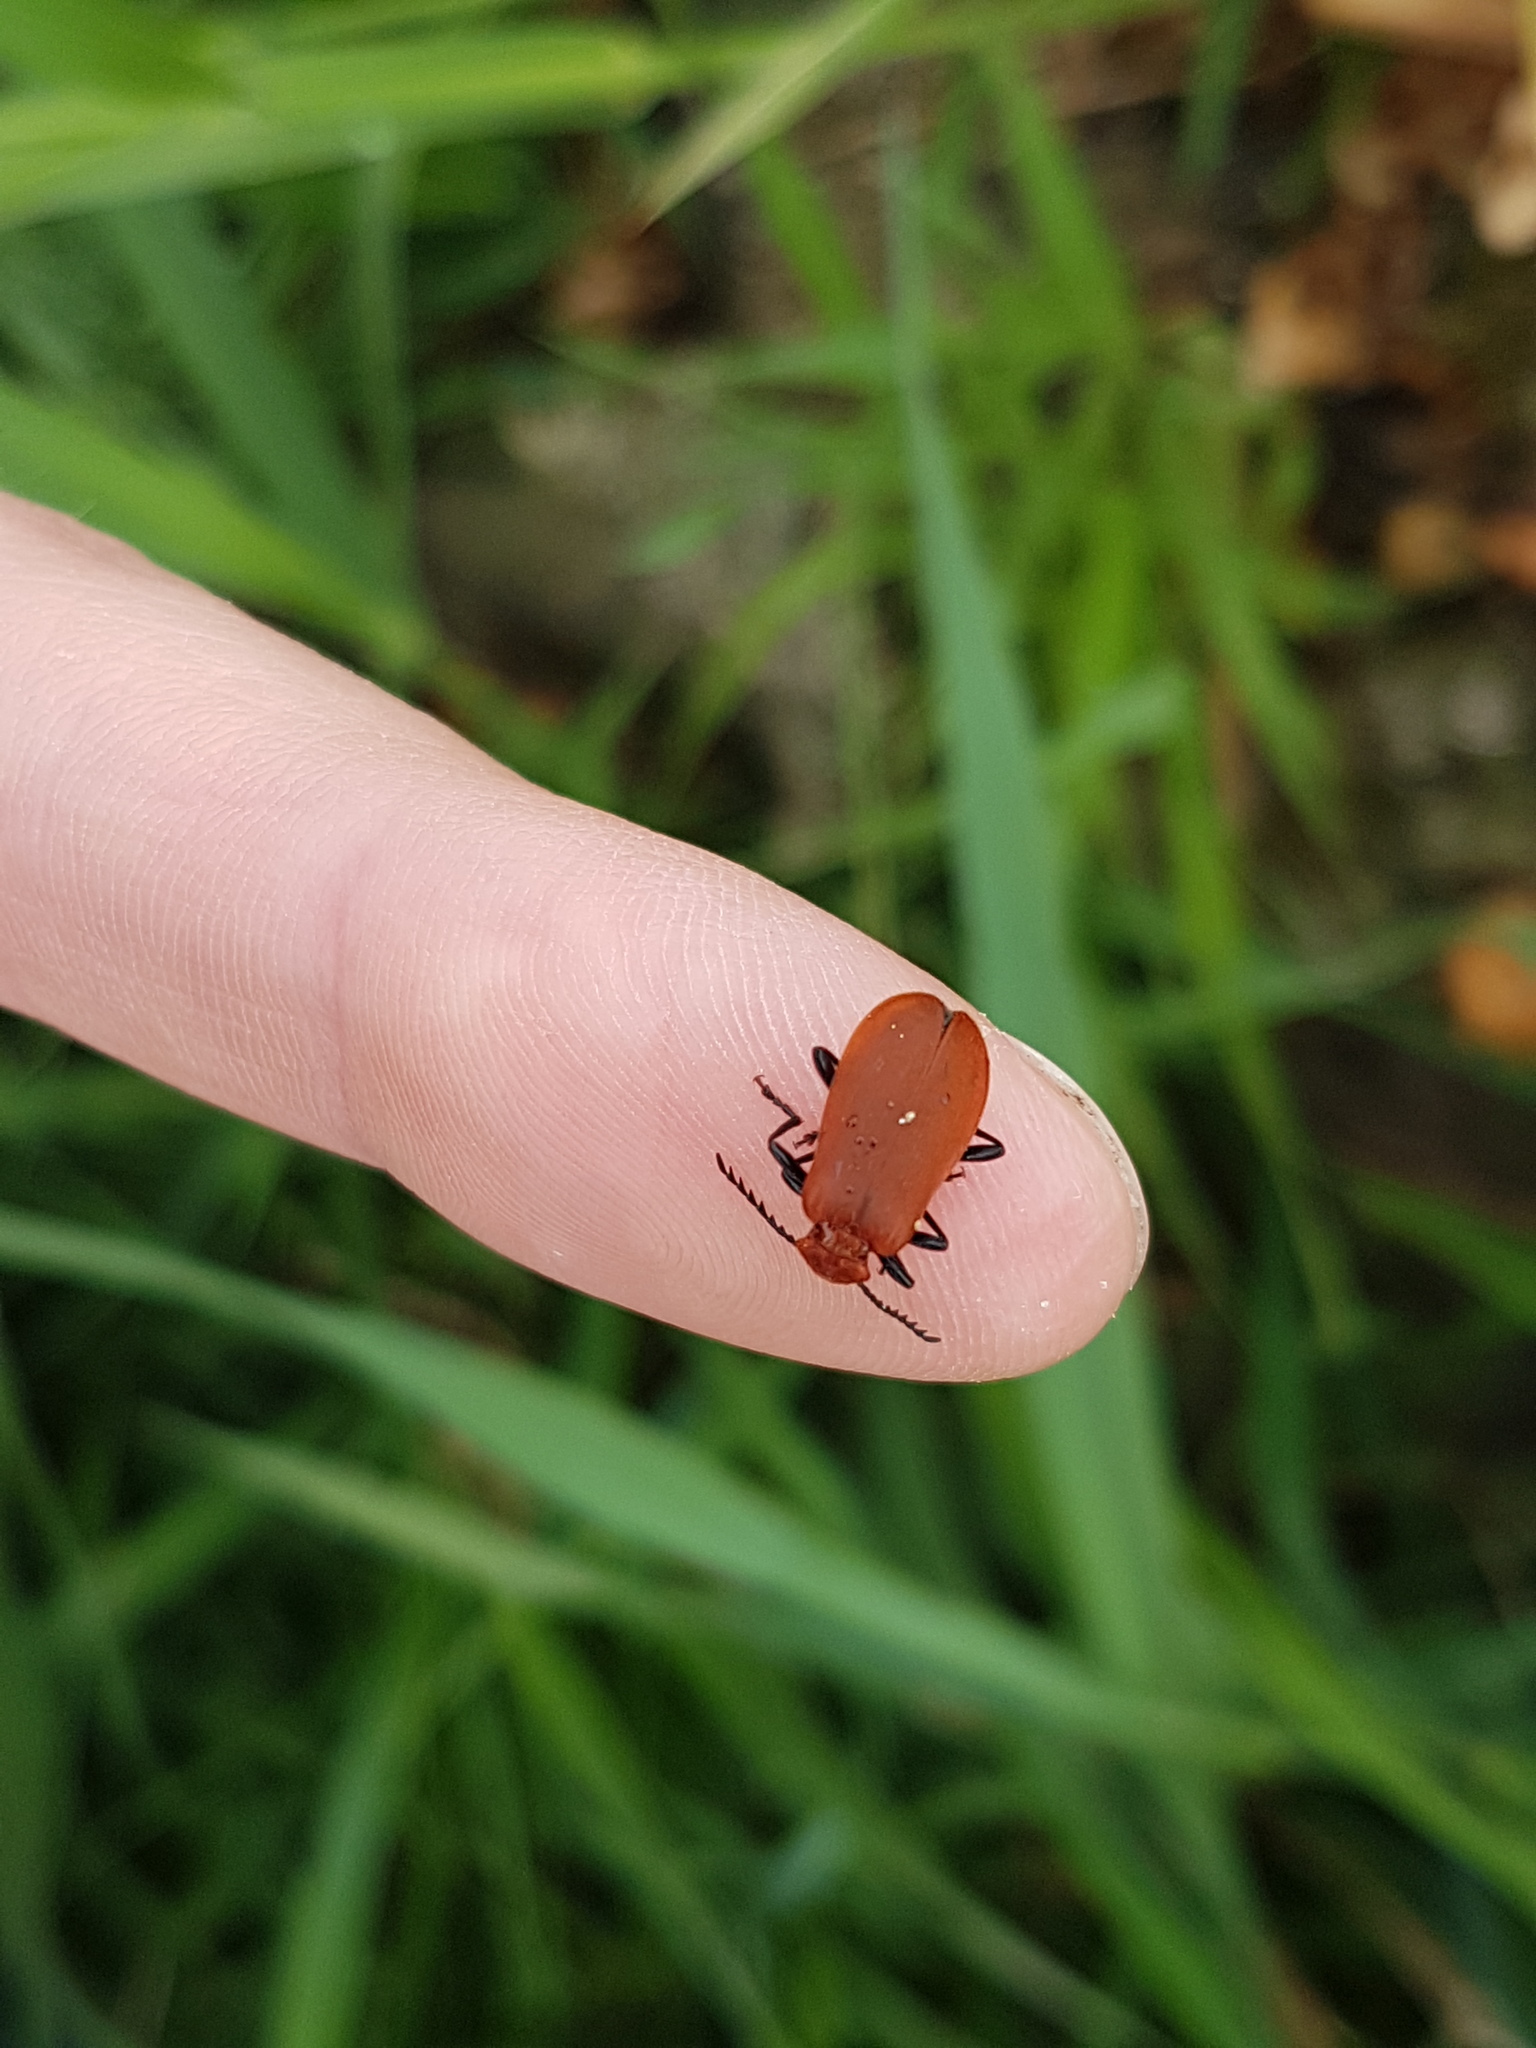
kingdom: Animalia
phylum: Arthropoda
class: Insecta
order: Coleoptera
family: Pyrochroidae
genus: Pyrochroa
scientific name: Pyrochroa serraticornis
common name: Red-headed cardinal beetle
